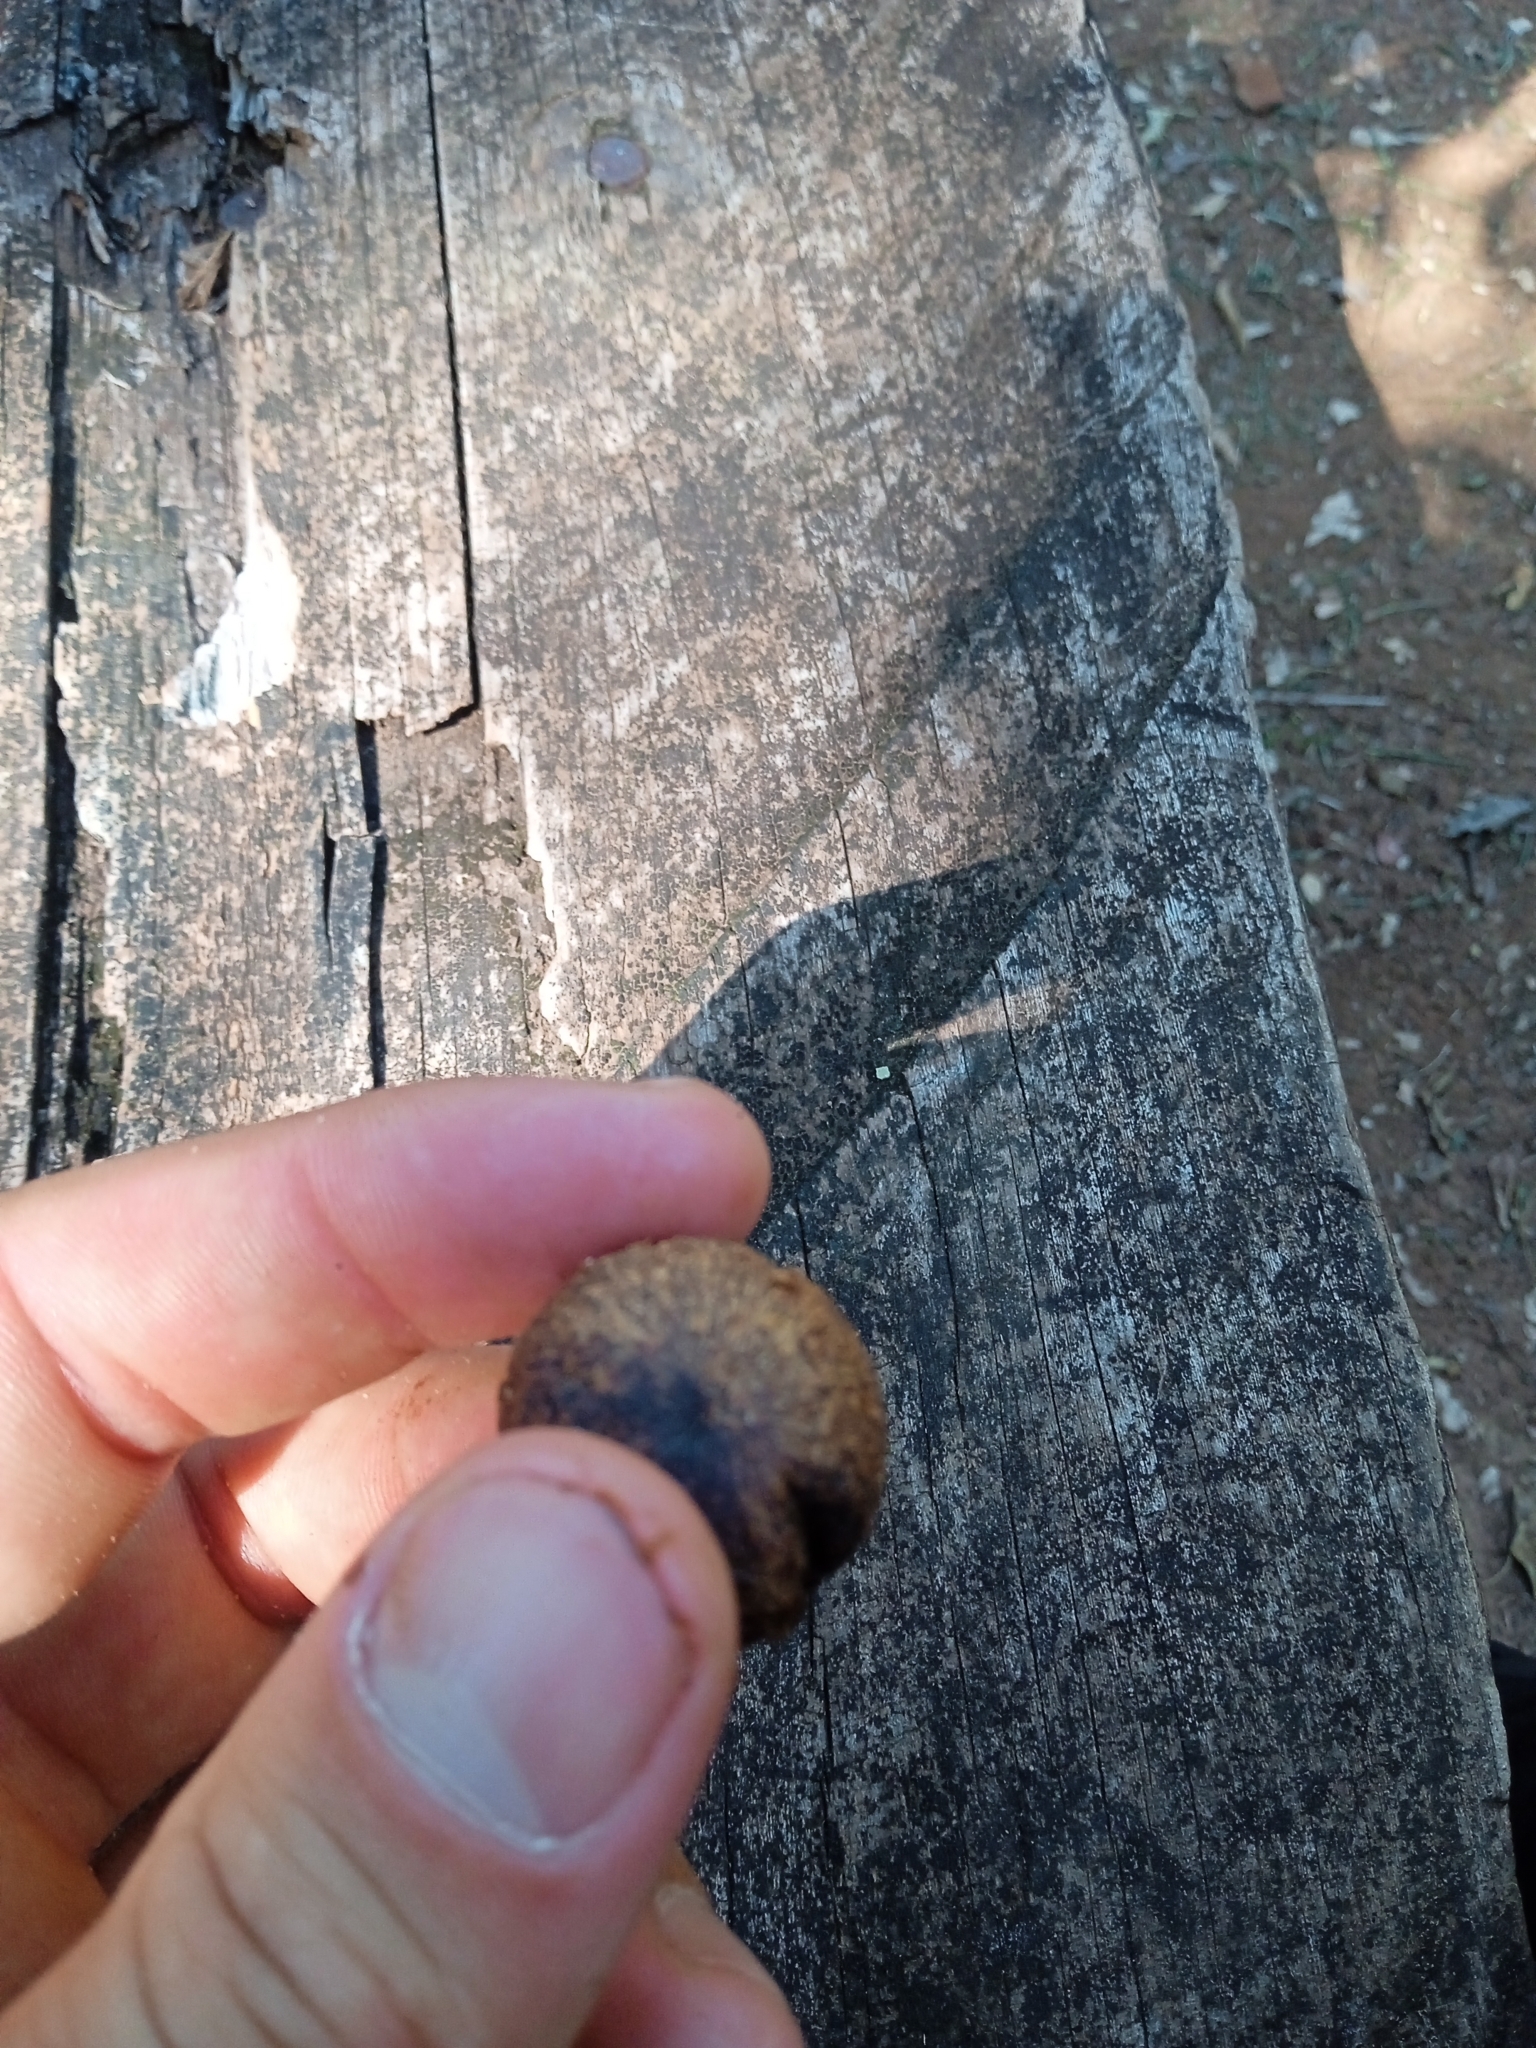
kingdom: Plantae
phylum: Tracheophyta
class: Liliopsida
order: Arecales
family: Arecaceae
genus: Acrocomia
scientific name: Acrocomia aculeata
